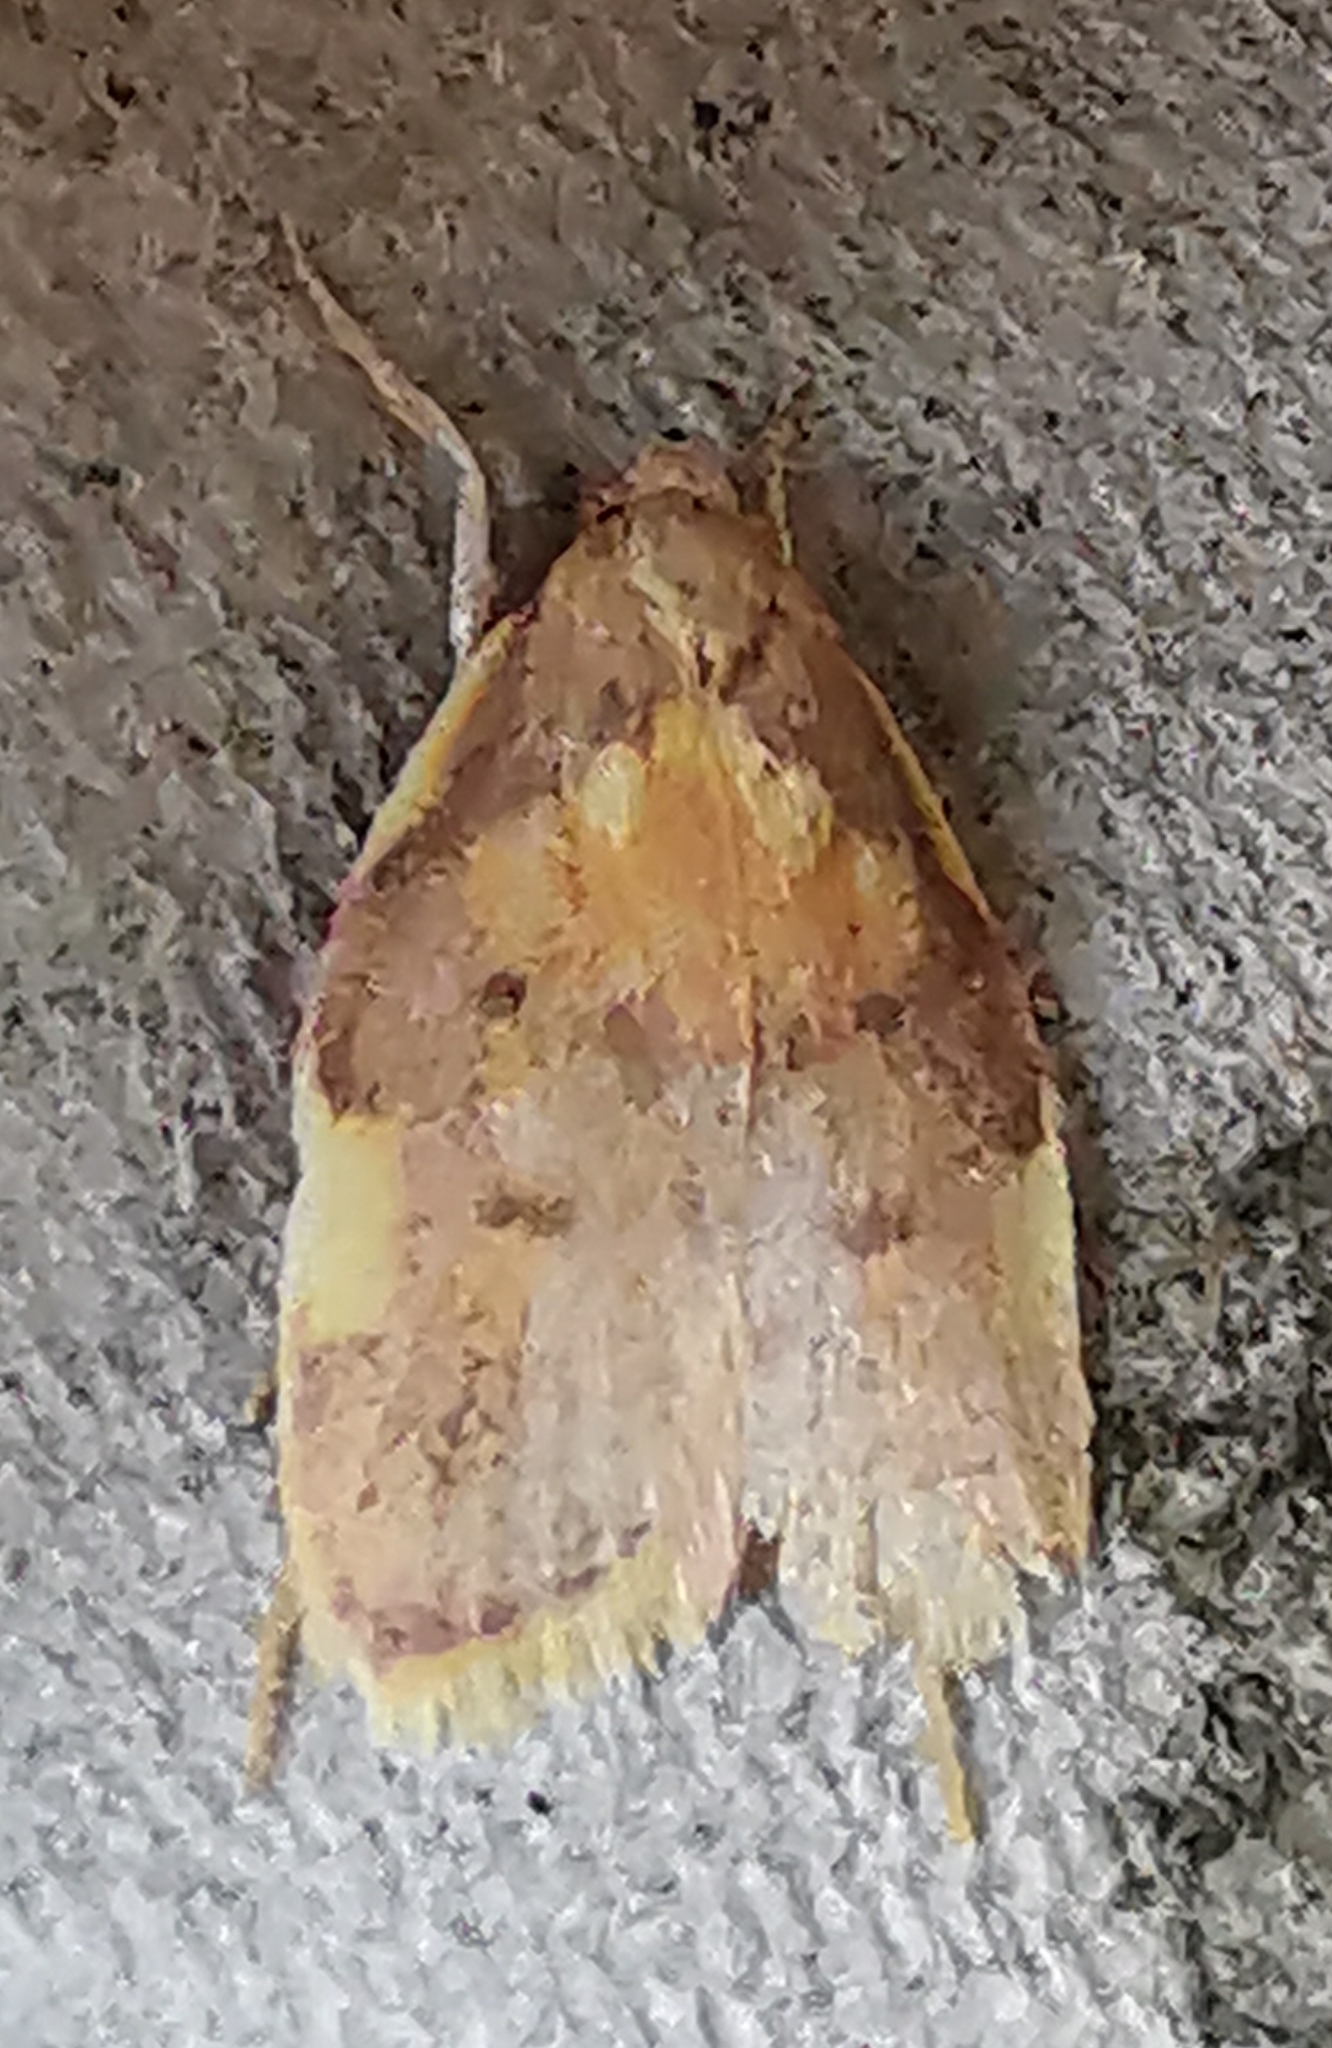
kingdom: Animalia
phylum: Arthropoda
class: Insecta
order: Lepidoptera
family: Peleopodidae
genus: Carcina
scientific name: Carcina quercana
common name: Moth
